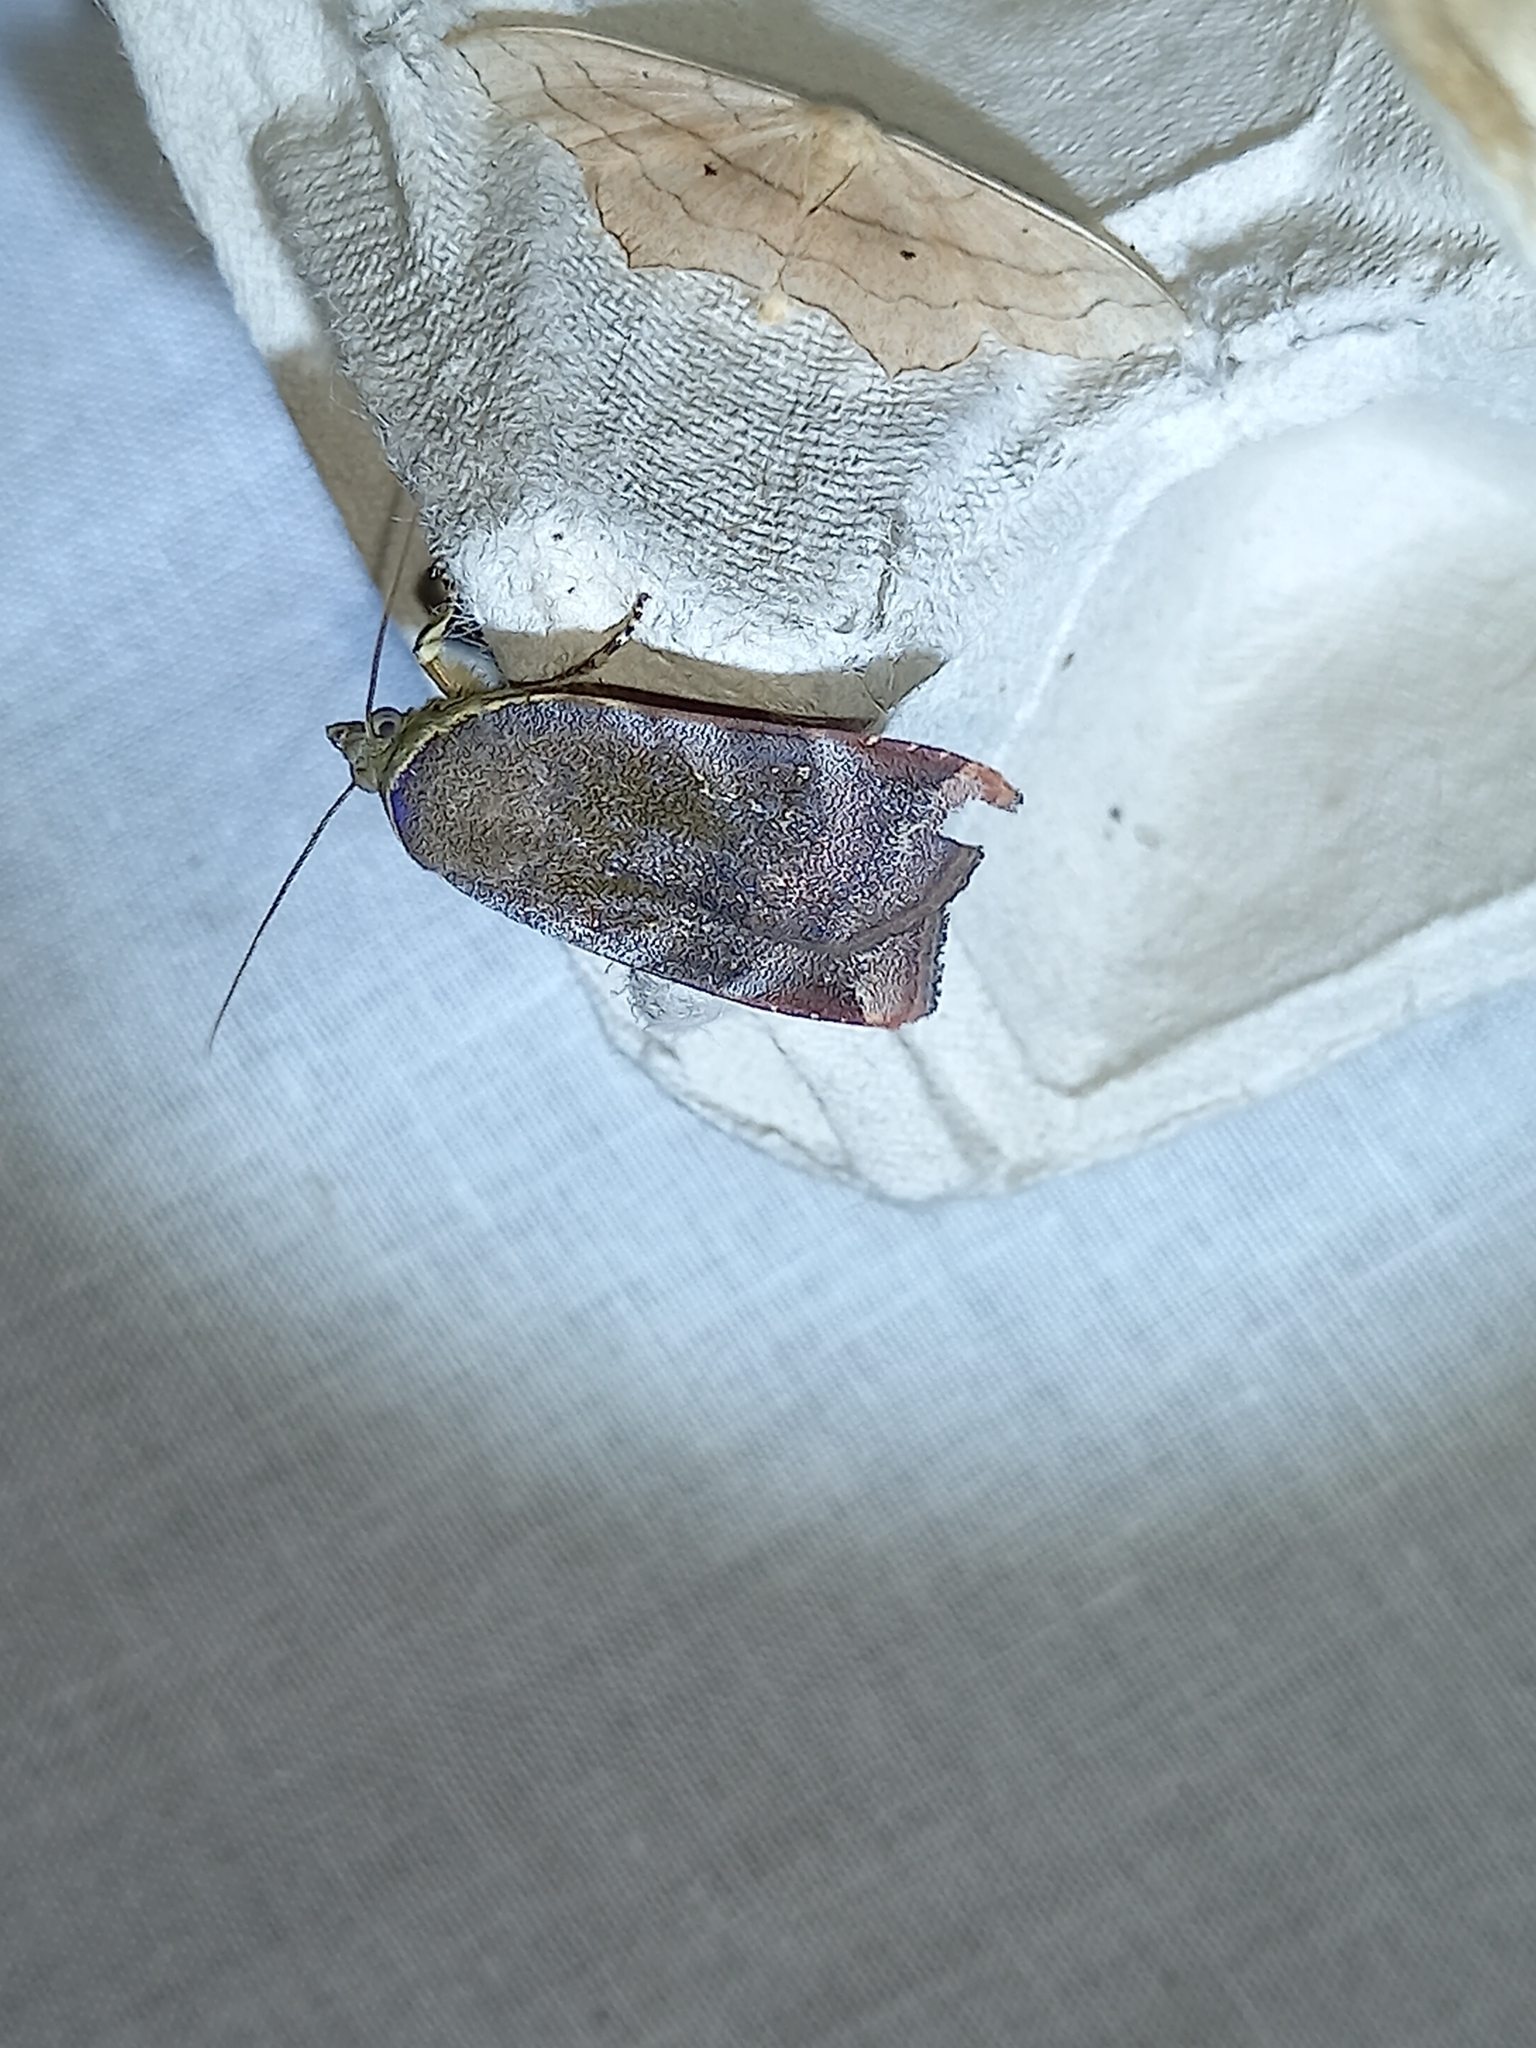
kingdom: Animalia
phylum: Arthropoda
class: Insecta
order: Lepidoptera
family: Noctuidae
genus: Noctua
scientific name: Noctua janthe
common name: Lesser broad-bordered yellow underwing
